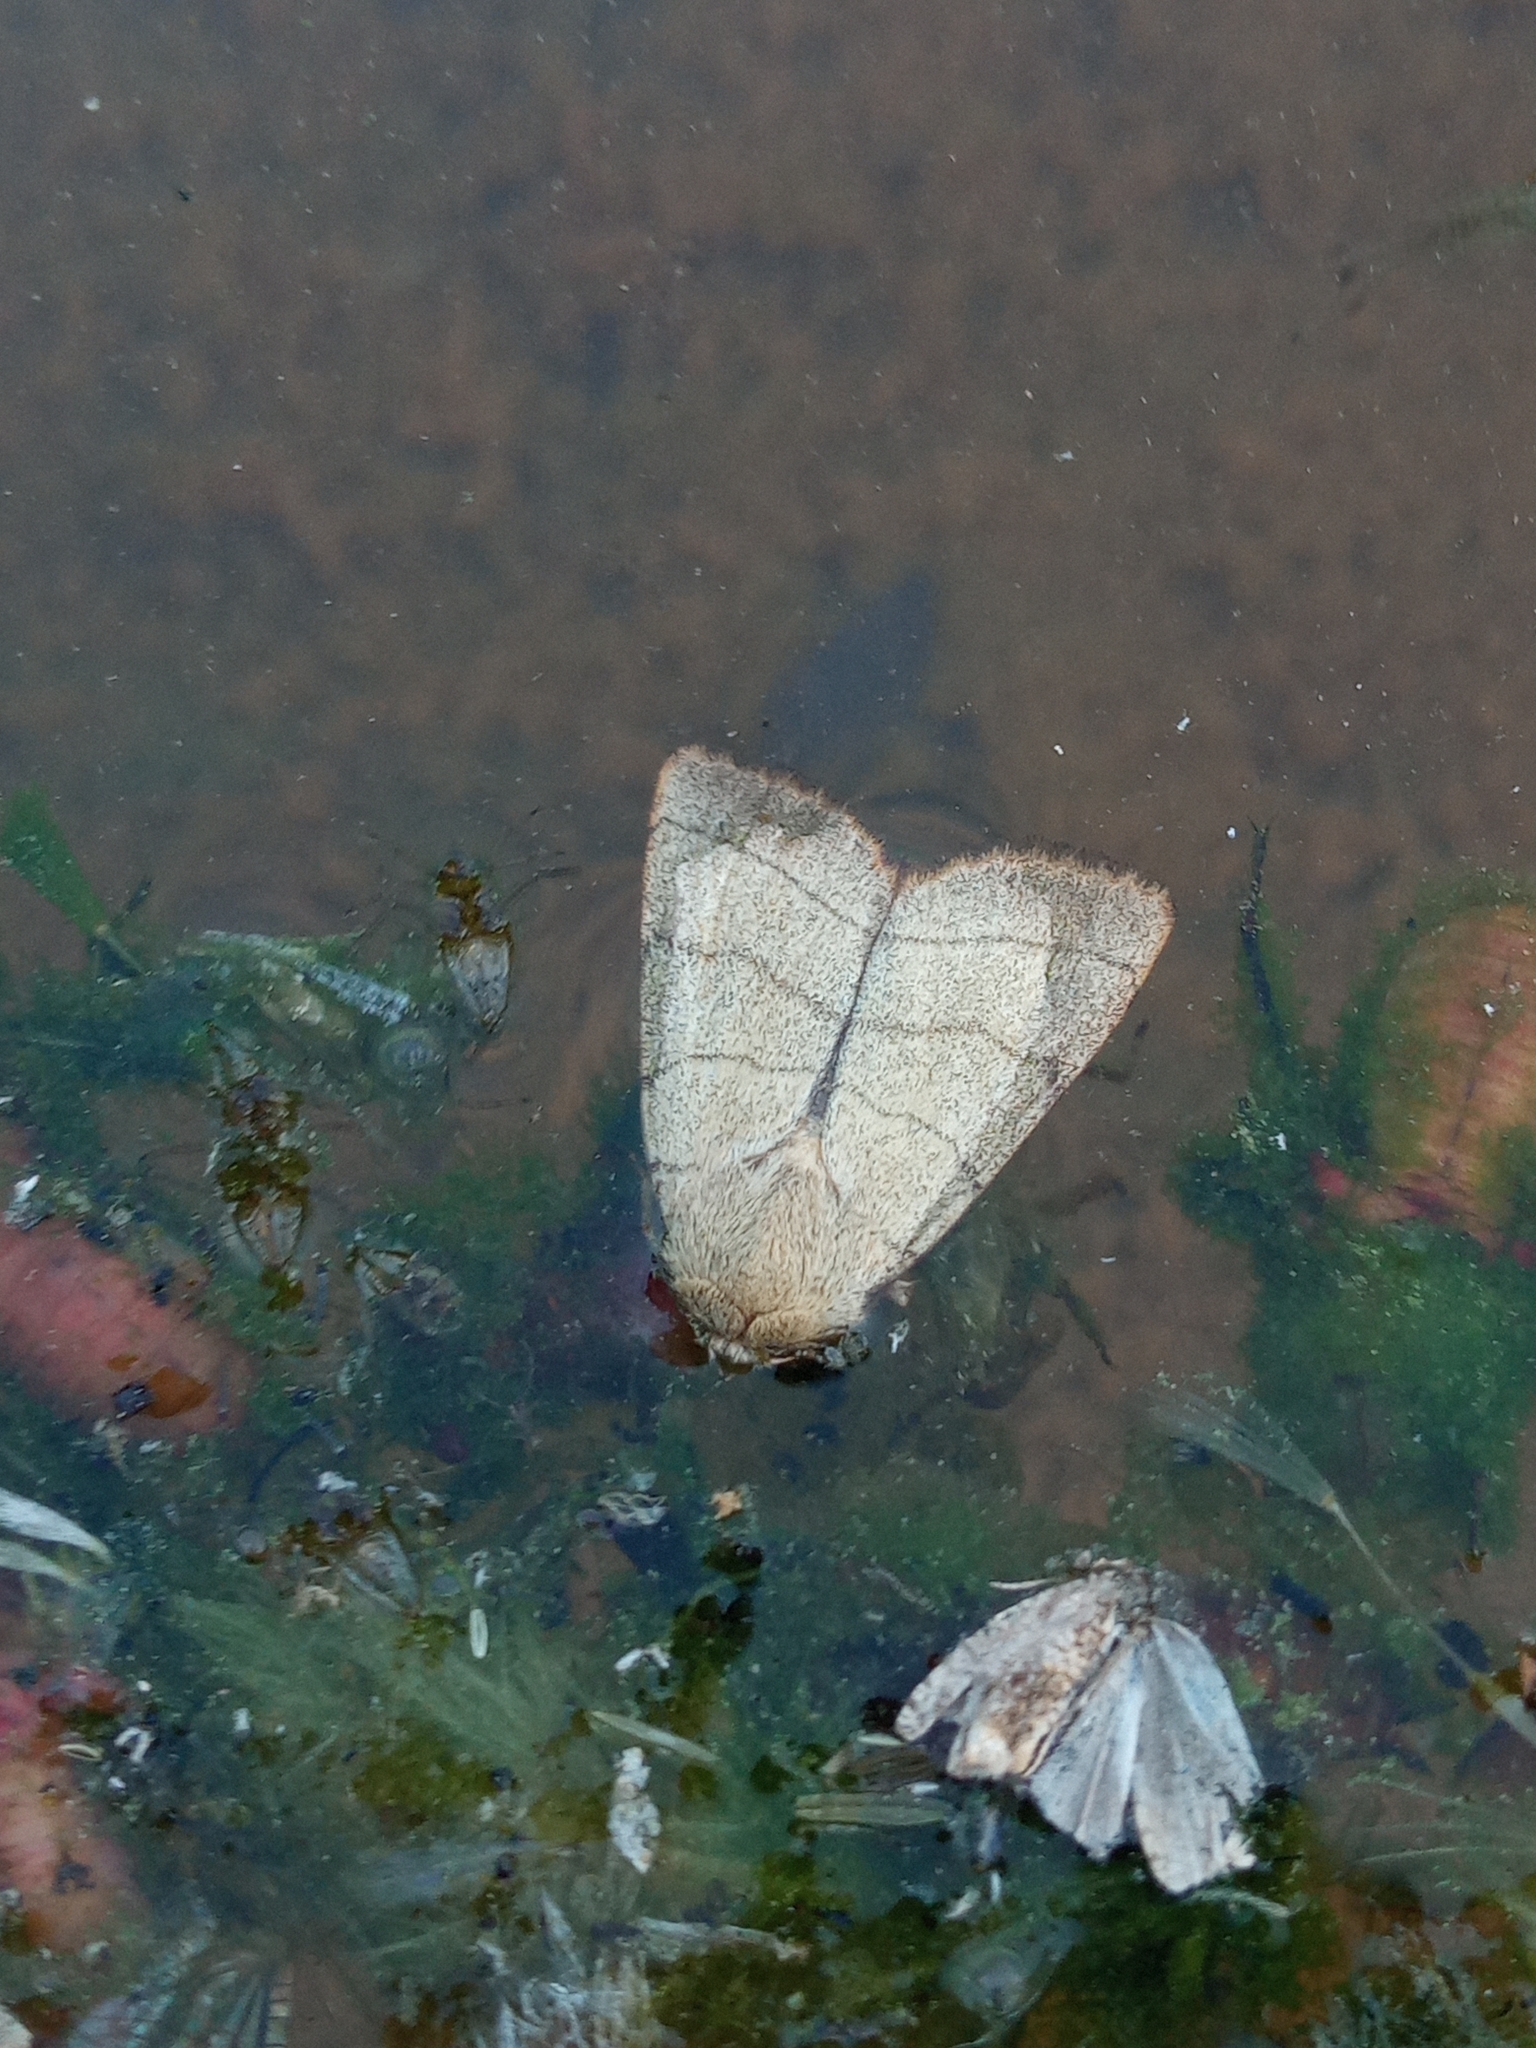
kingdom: Animalia
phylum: Arthropoda
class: Insecta
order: Lepidoptera
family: Noctuidae
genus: Charanyca
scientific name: Charanyca trigrammica
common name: Treble lines
